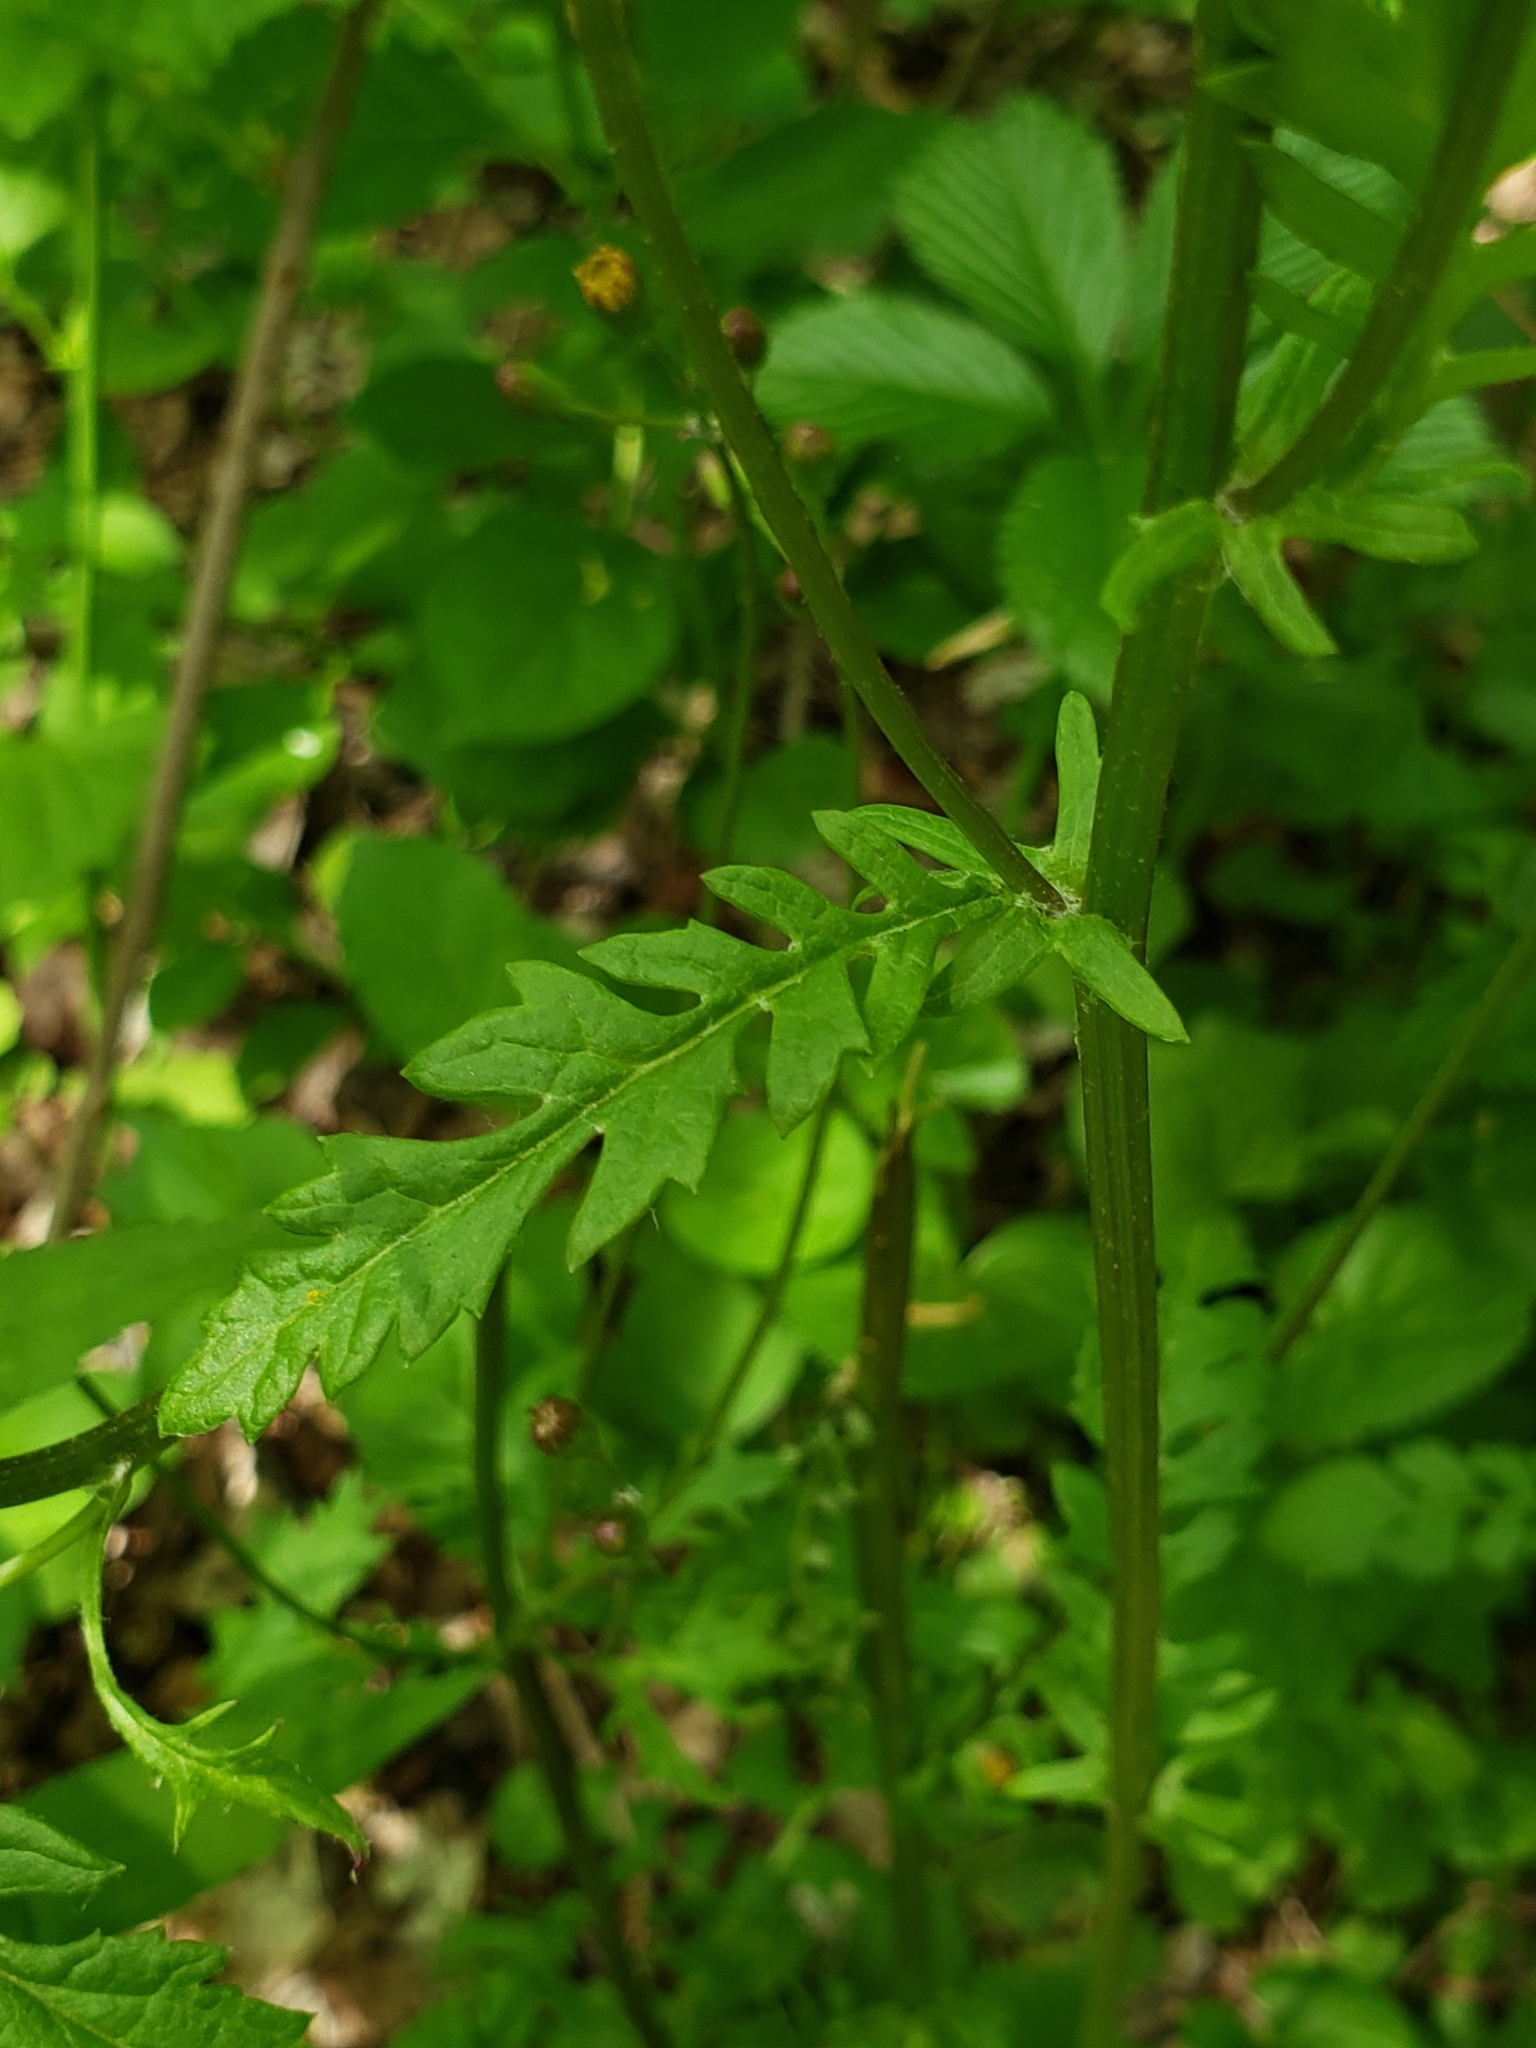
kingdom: Plantae
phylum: Tracheophyta
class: Magnoliopsida
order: Asterales
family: Asteraceae
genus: Packera
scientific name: Packera aurea
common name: Golden groundsel
